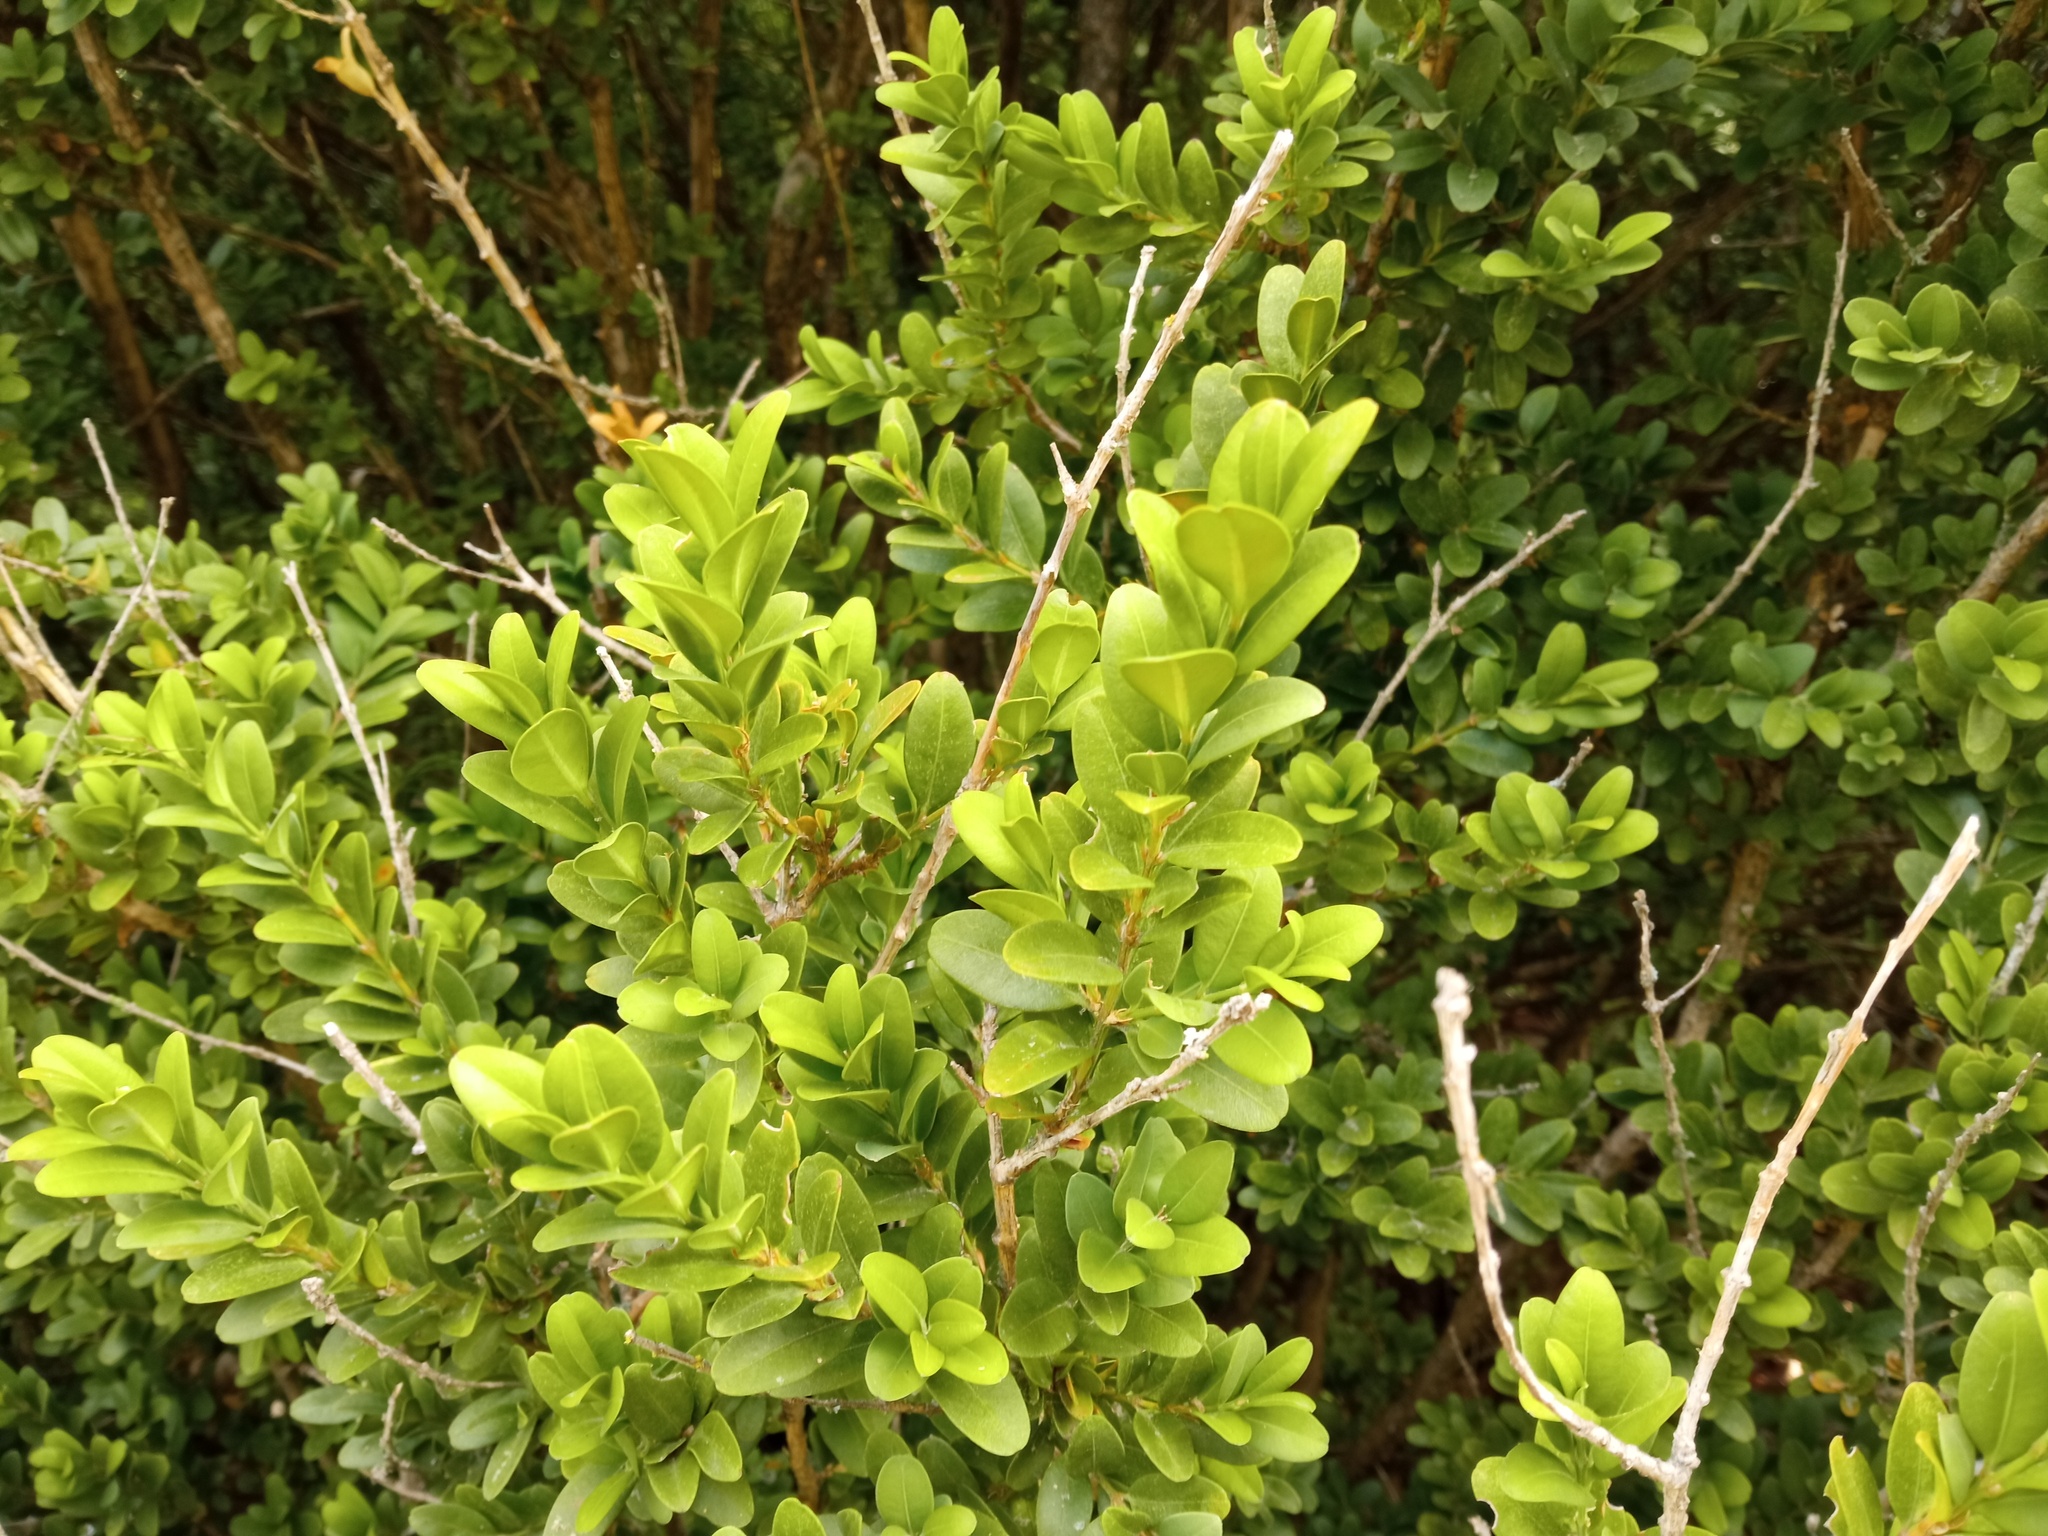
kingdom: Plantae
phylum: Tracheophyta
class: Magnoliopsida
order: Buxales
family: Buxaceae
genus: Buxus
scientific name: Buxus sempervirens
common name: Box
